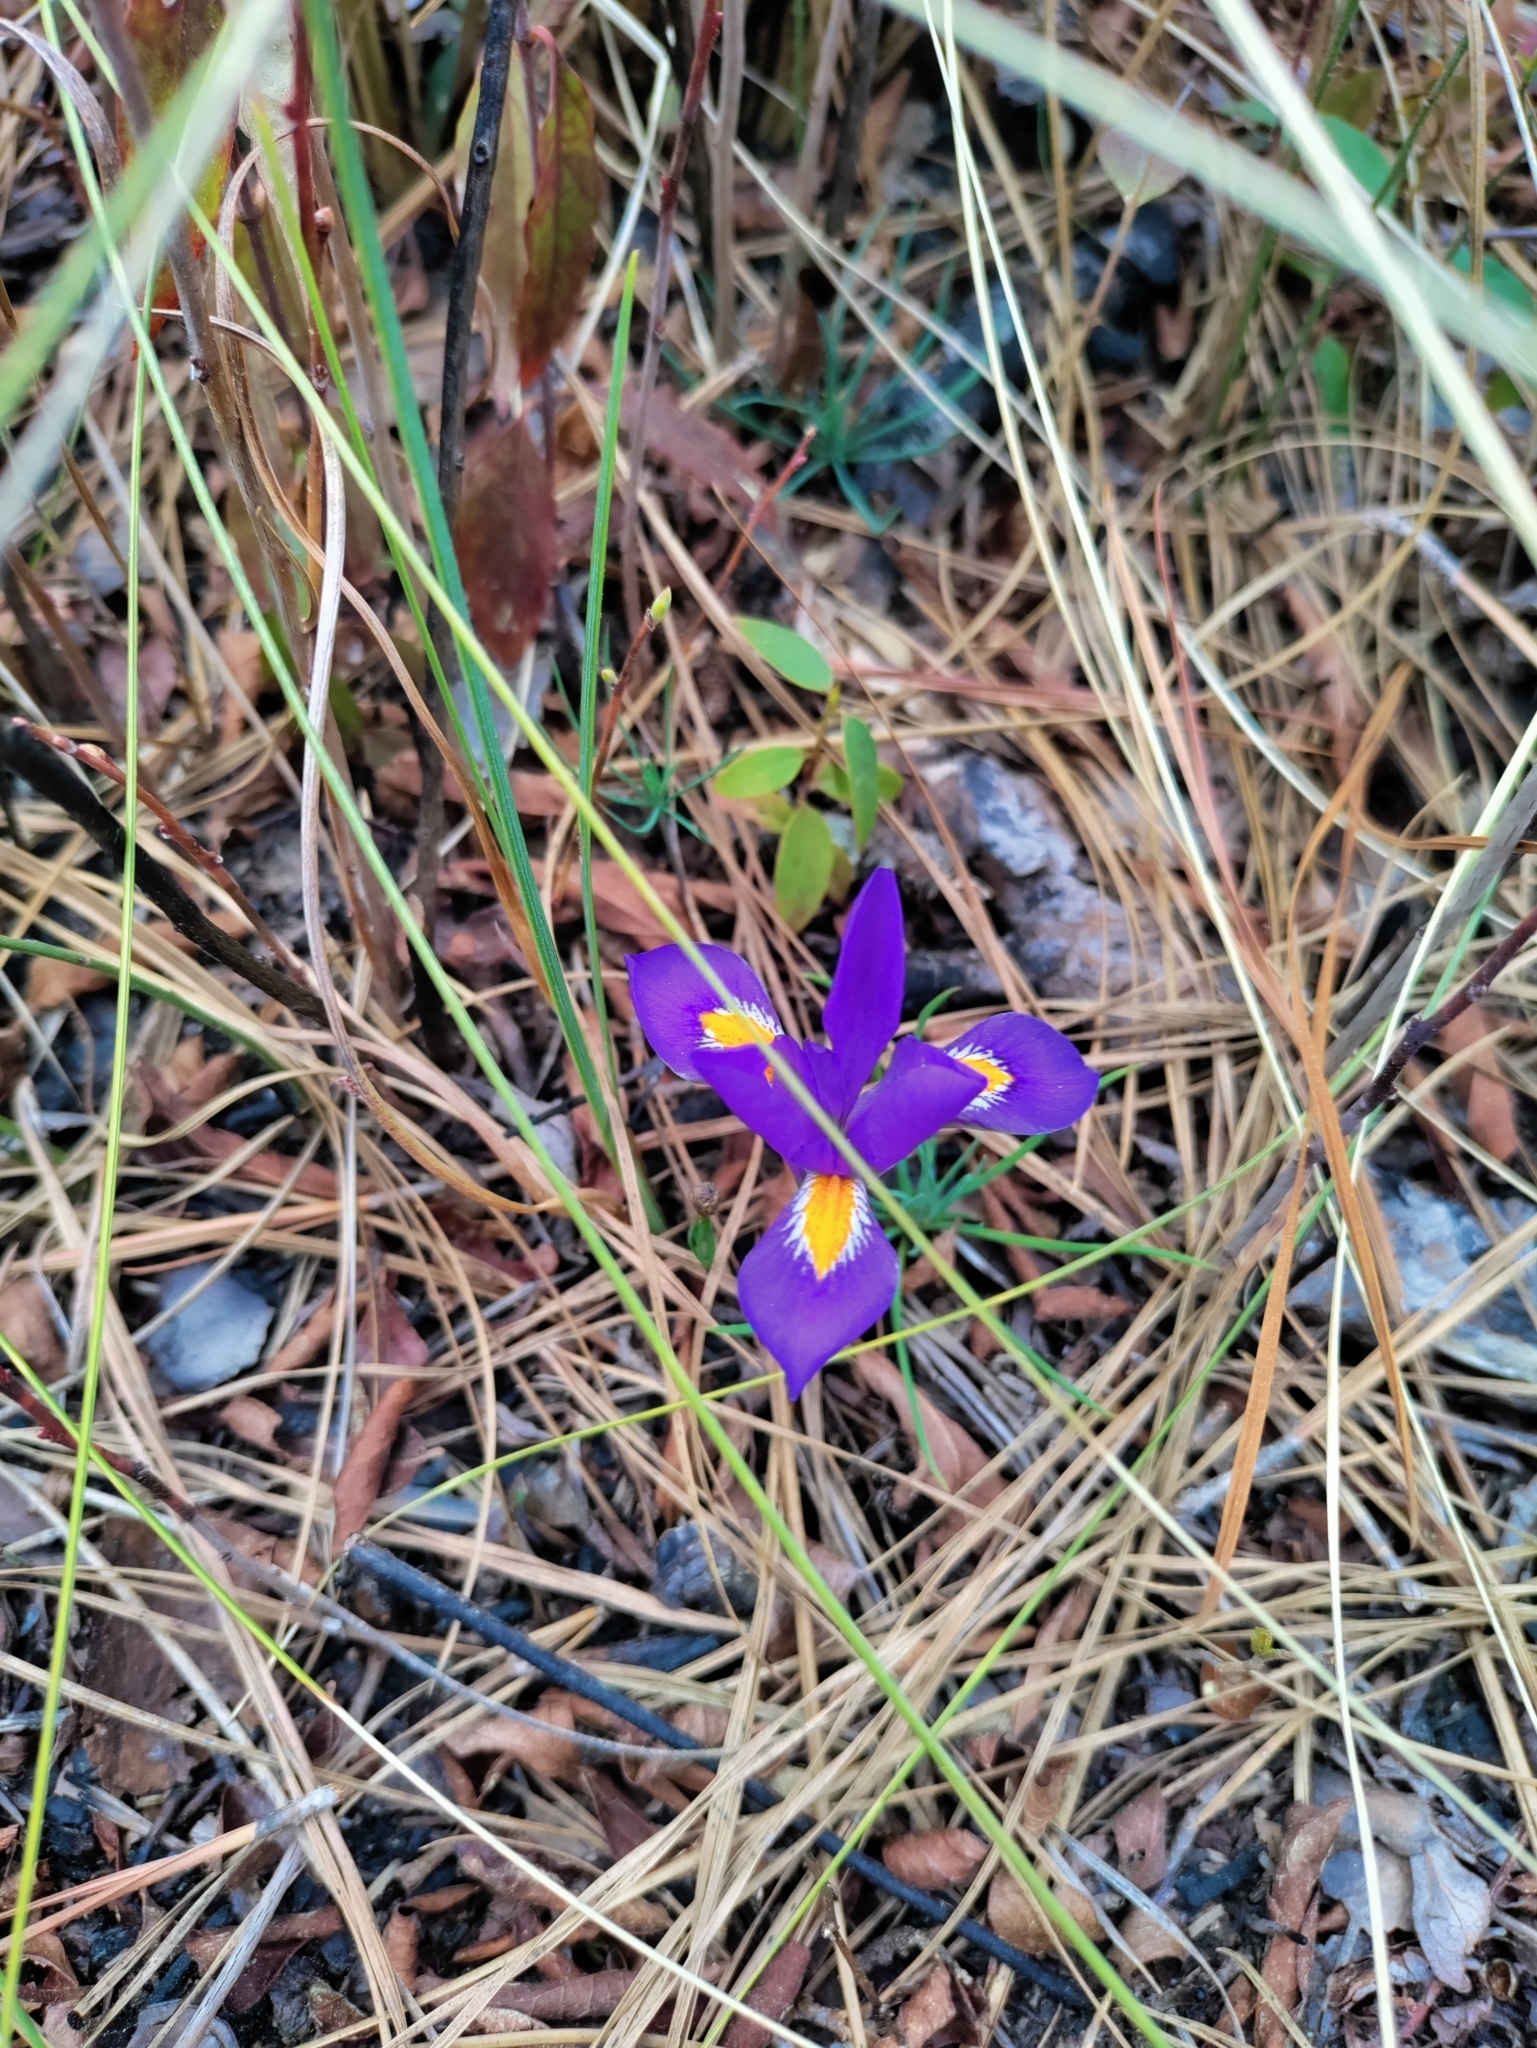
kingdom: Plantae
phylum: Tracheophyta
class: Liliopsida
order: Asparagales
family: Iridaceae
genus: Iris
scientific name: Iris verna
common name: Dwarf iris
